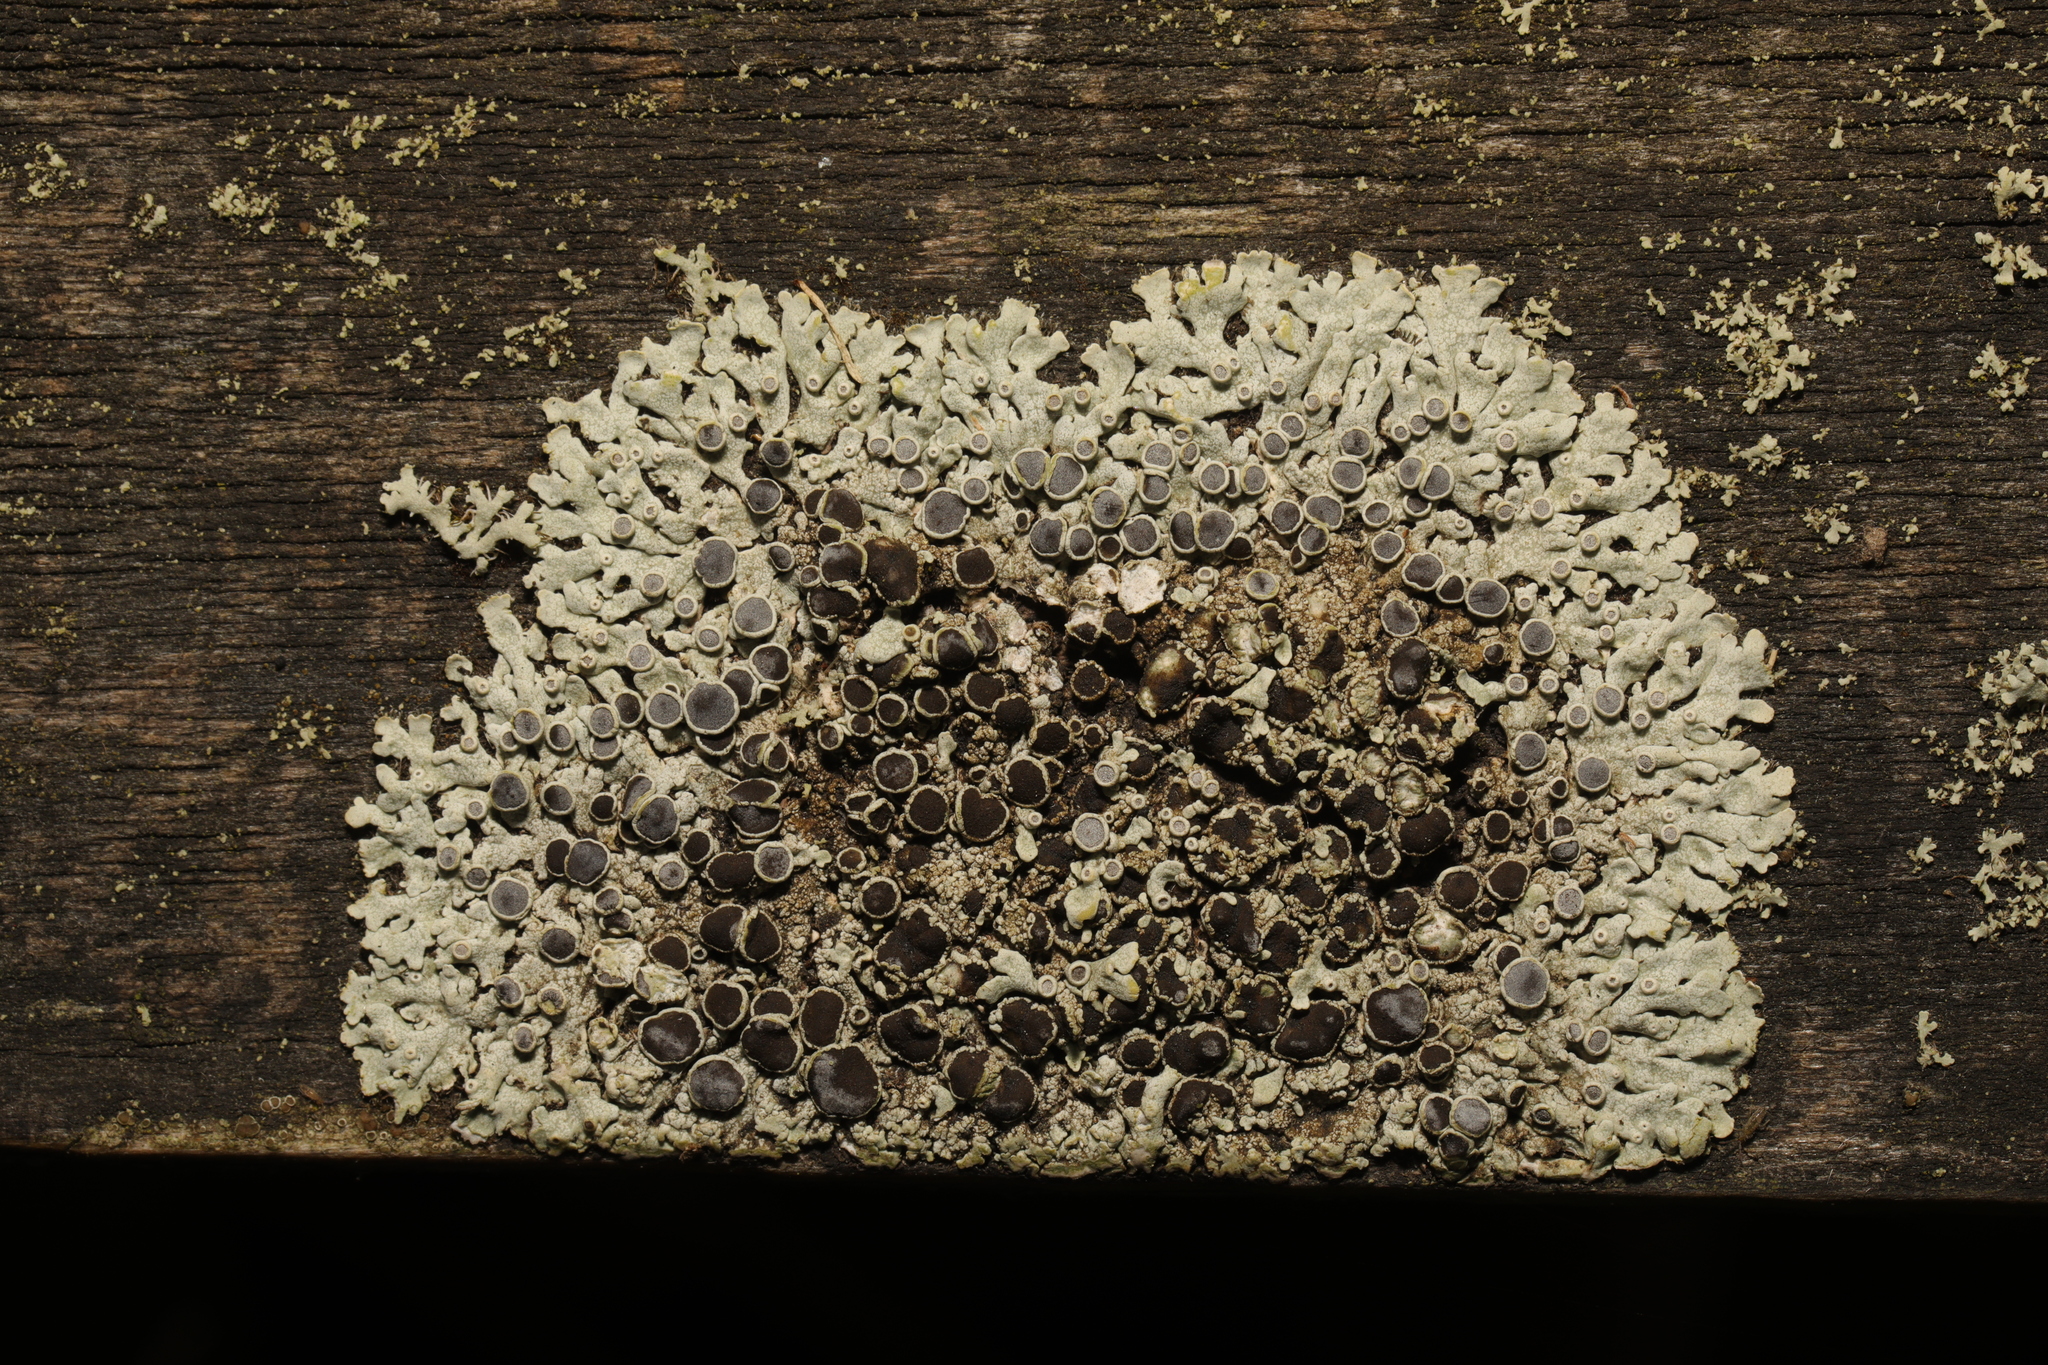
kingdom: Fungi
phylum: Ascomycota
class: Lecanoromycetes
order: Caliciales
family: Physciaceae
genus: Physcia
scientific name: Physcia aipolia
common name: Hoary rosette lichen
